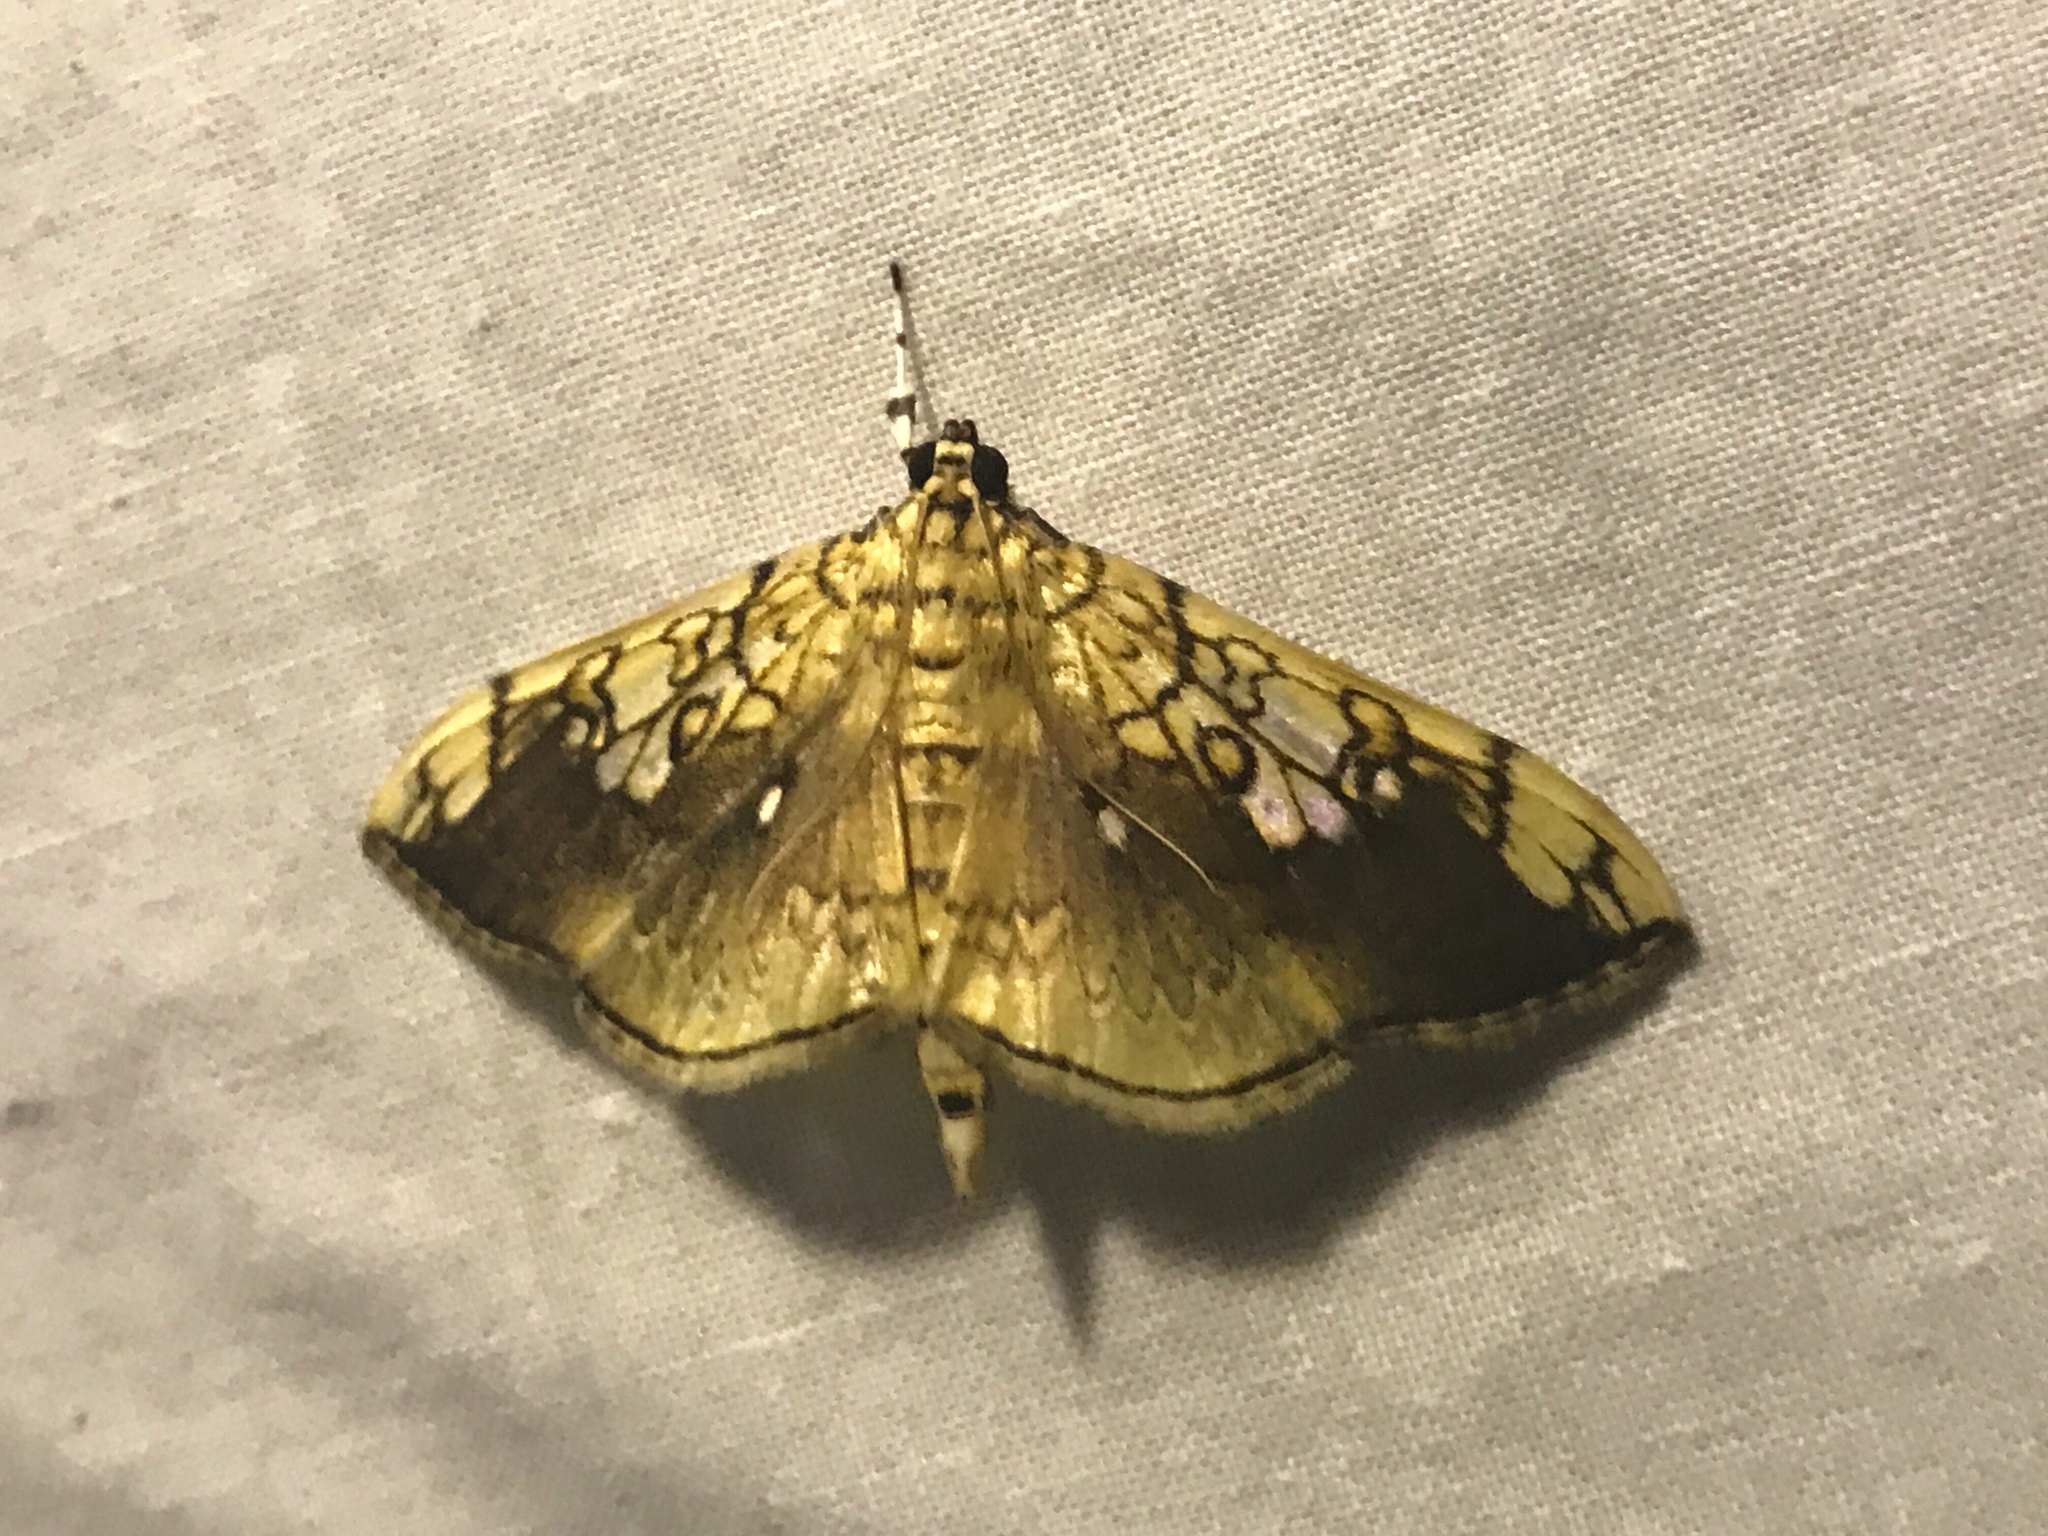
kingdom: Animalia
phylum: Arthropoda
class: Insecta
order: Lepidoptera
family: Crambidae
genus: Pantographa
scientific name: Pantographa limata
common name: Basswood leafroller moth
